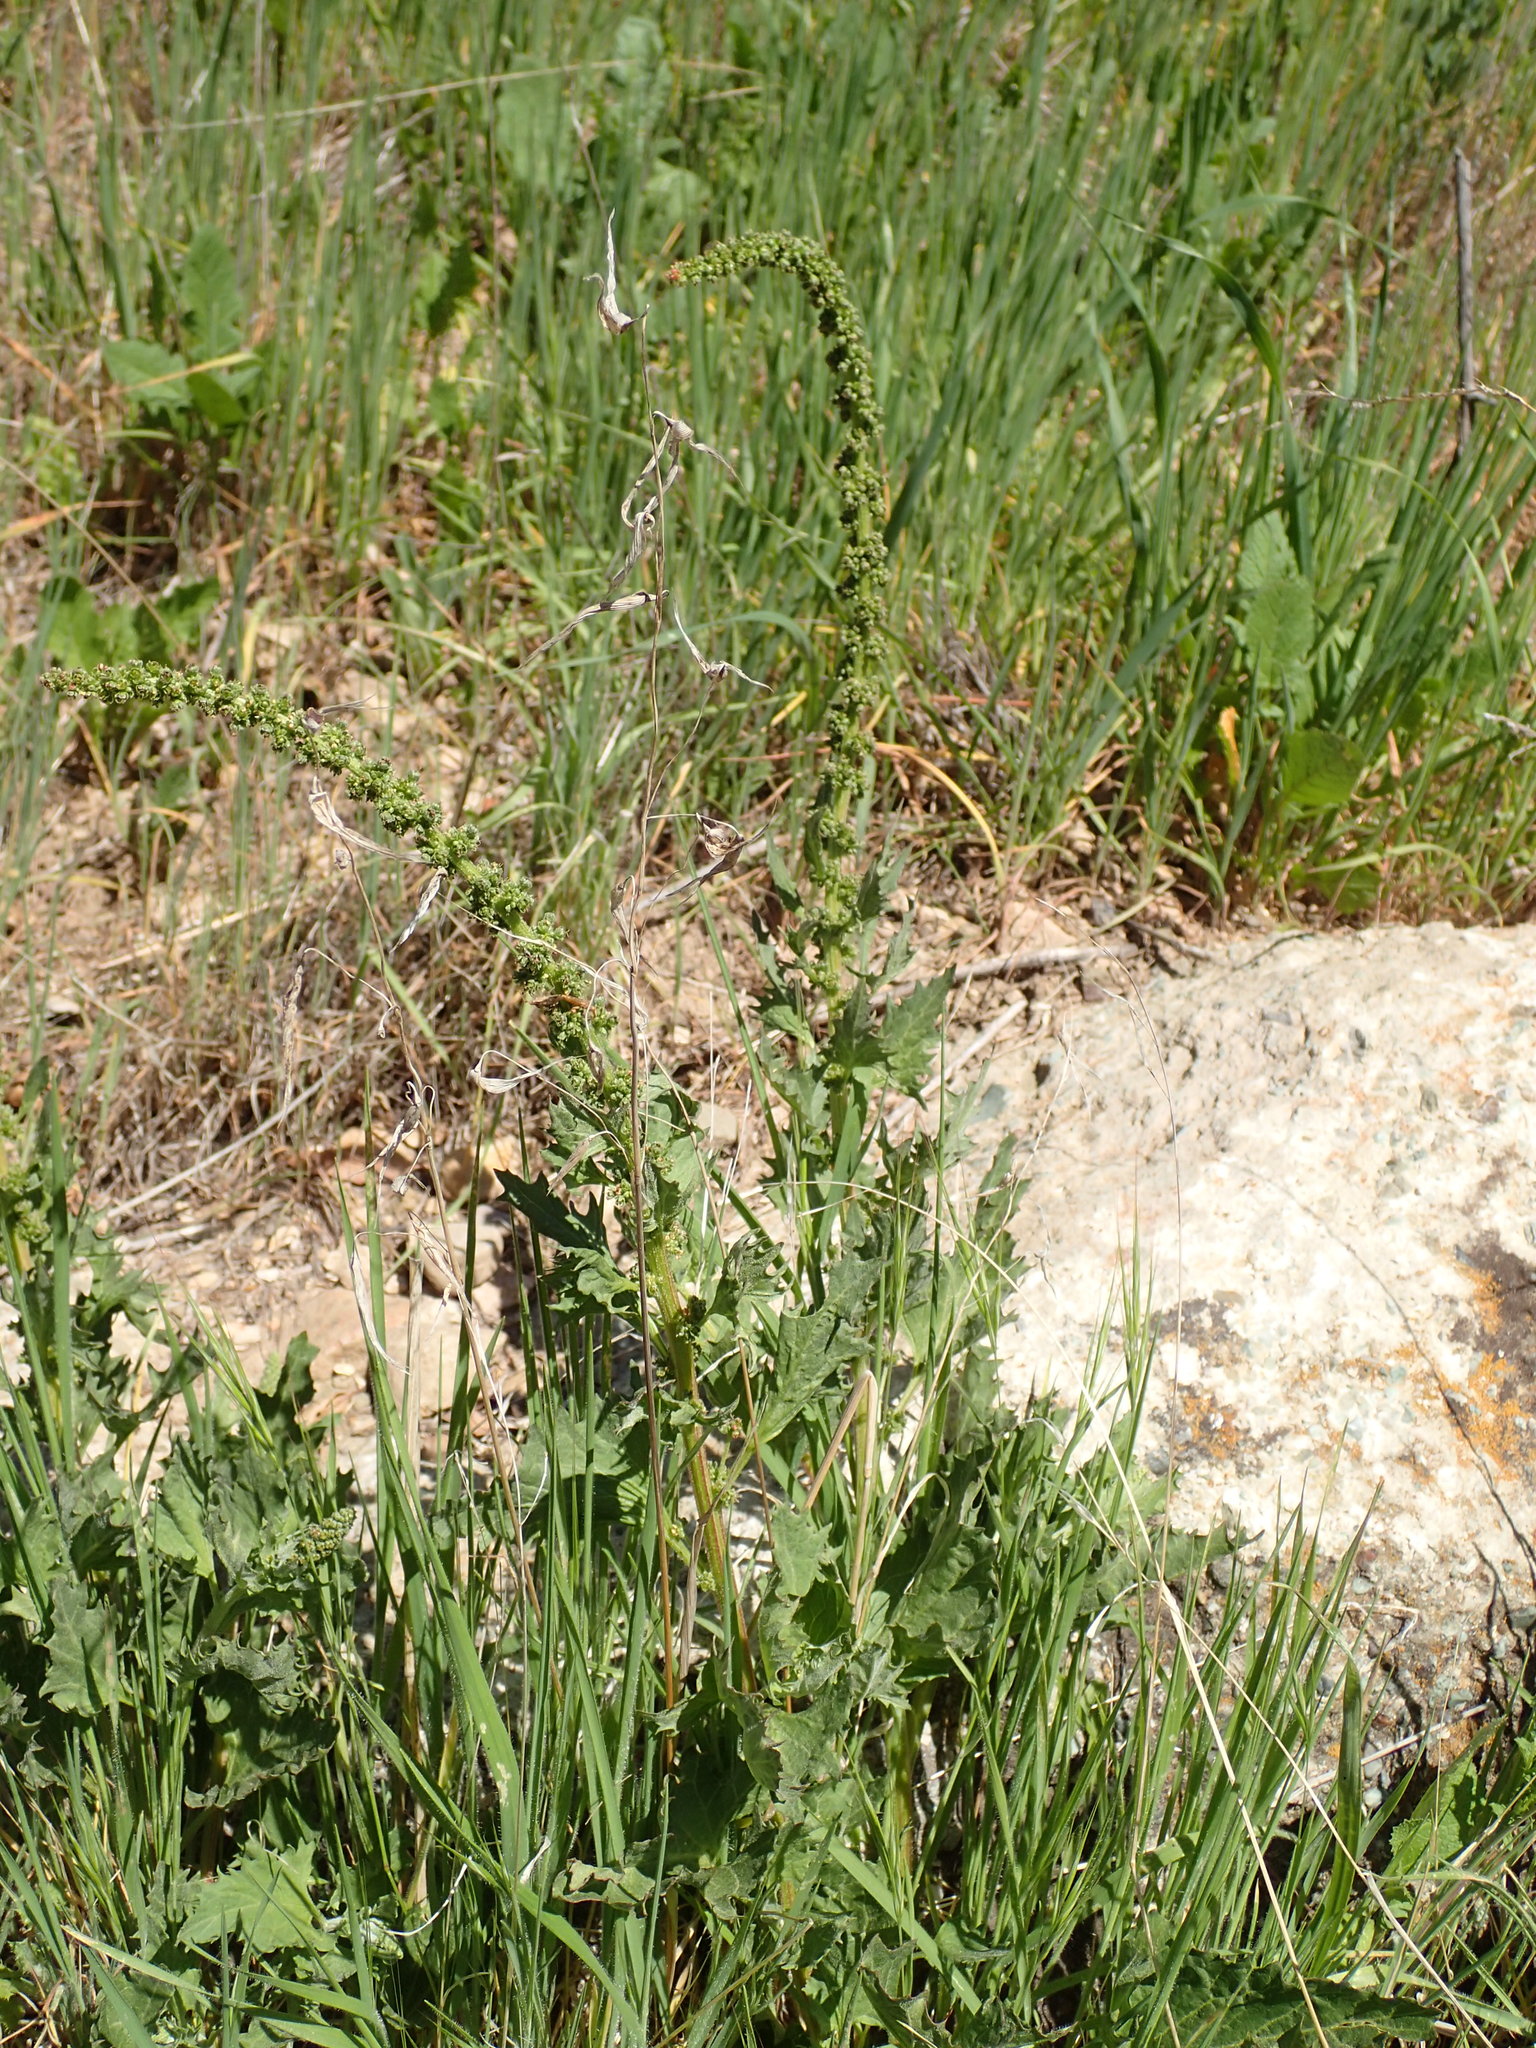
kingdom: Plantae
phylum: Tracheophyta
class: Magnoliopsida
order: Caryophyllales
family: Amaranthaceae
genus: Blitum
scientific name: Blitum californicum
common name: California goosefoot
